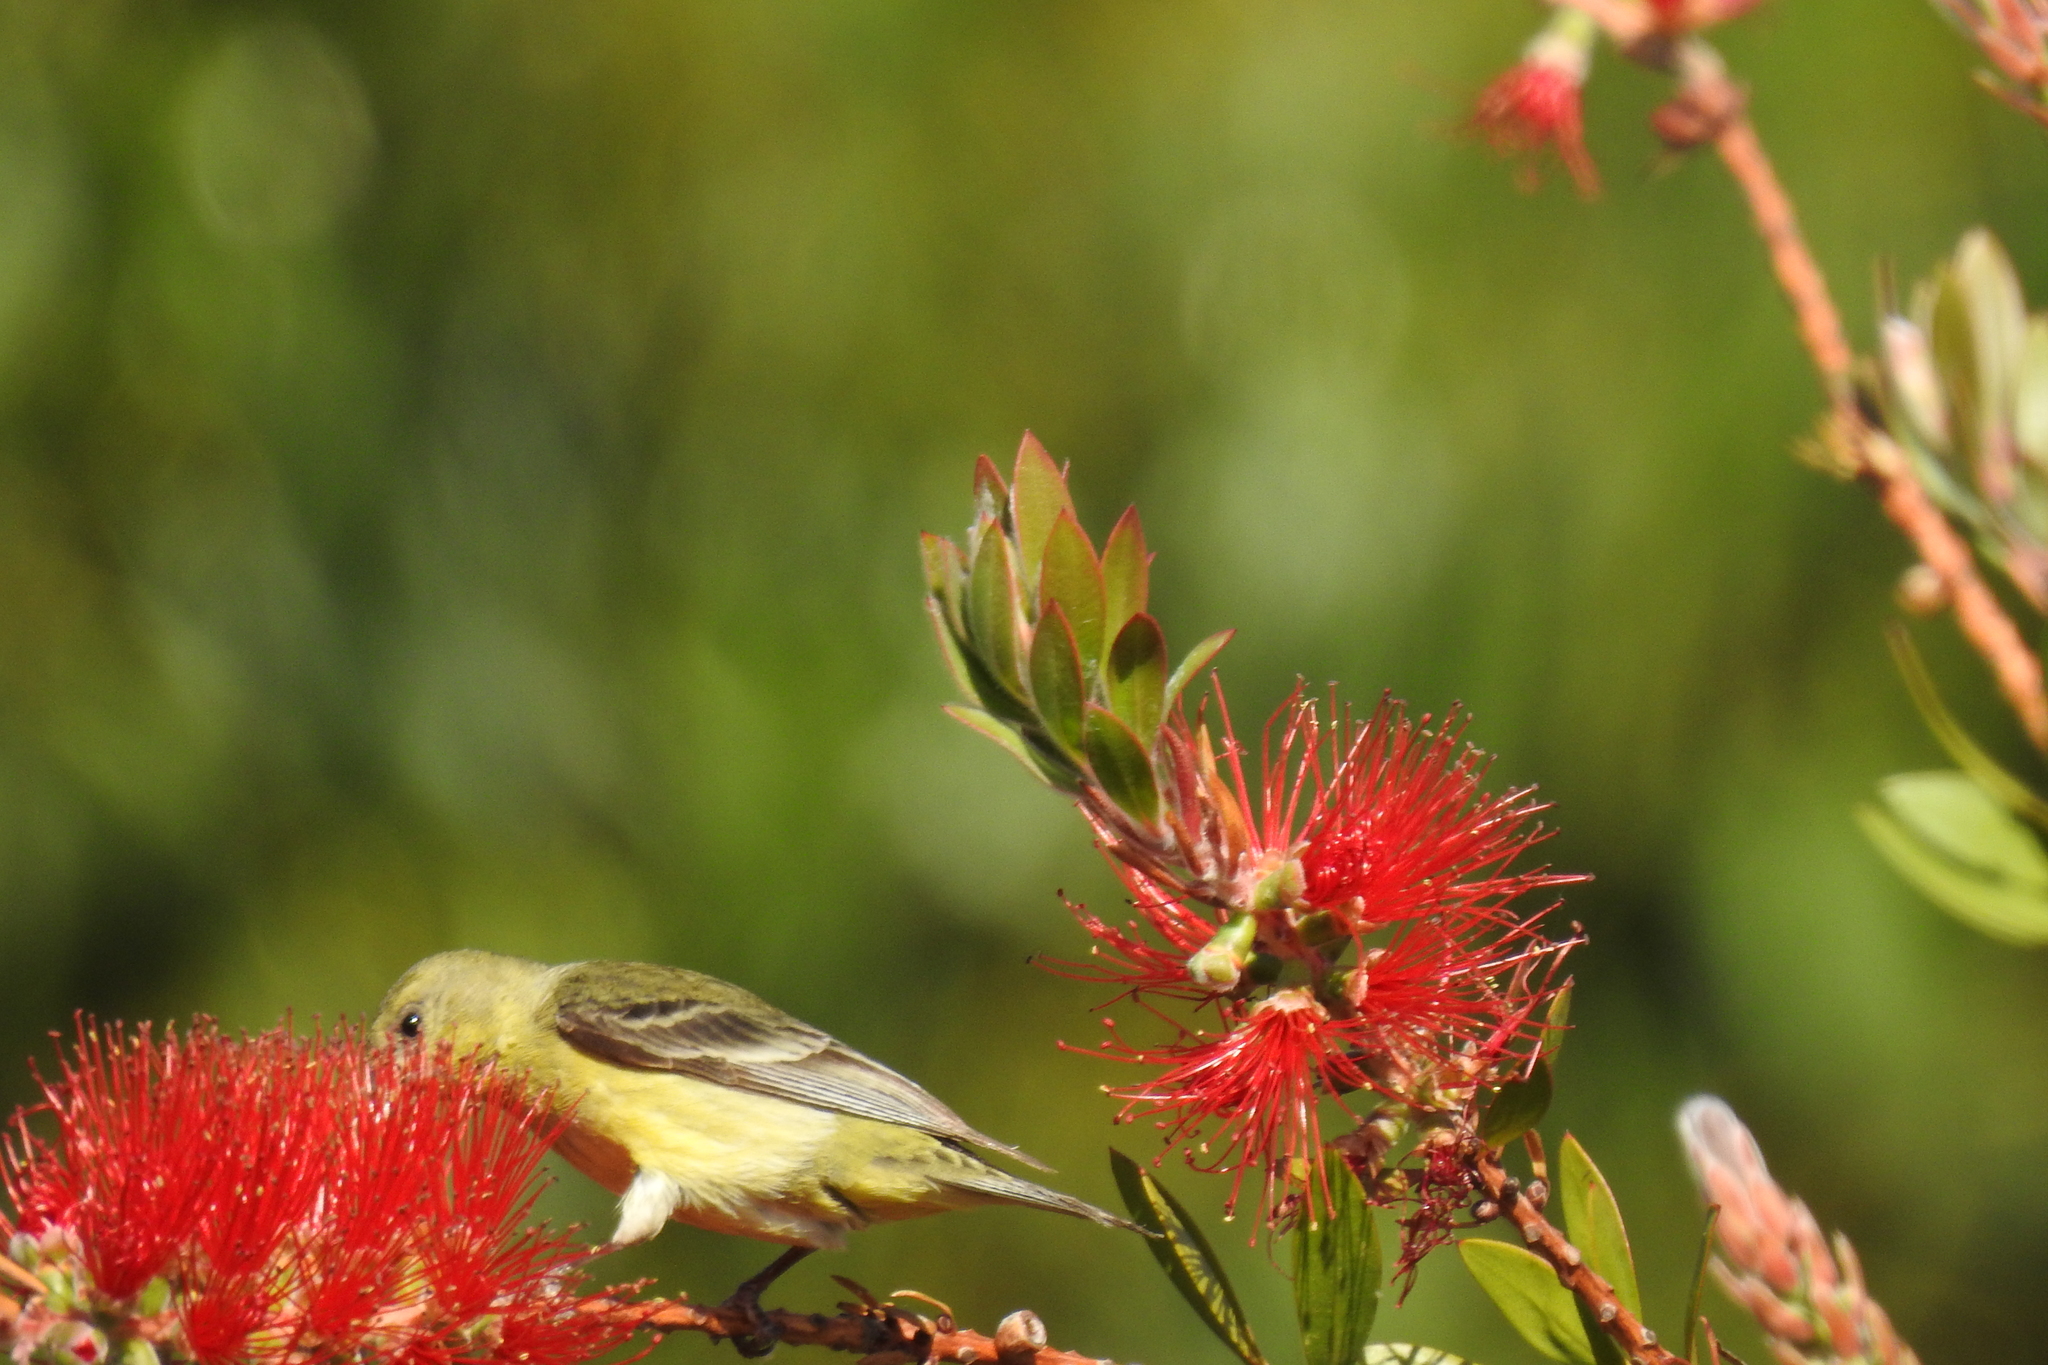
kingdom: Animalia
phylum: Chordata
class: Aves
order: Passeriformes
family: Fringillidae
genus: Spinus
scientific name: Spinus psaltria
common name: Lesser goldfinch
